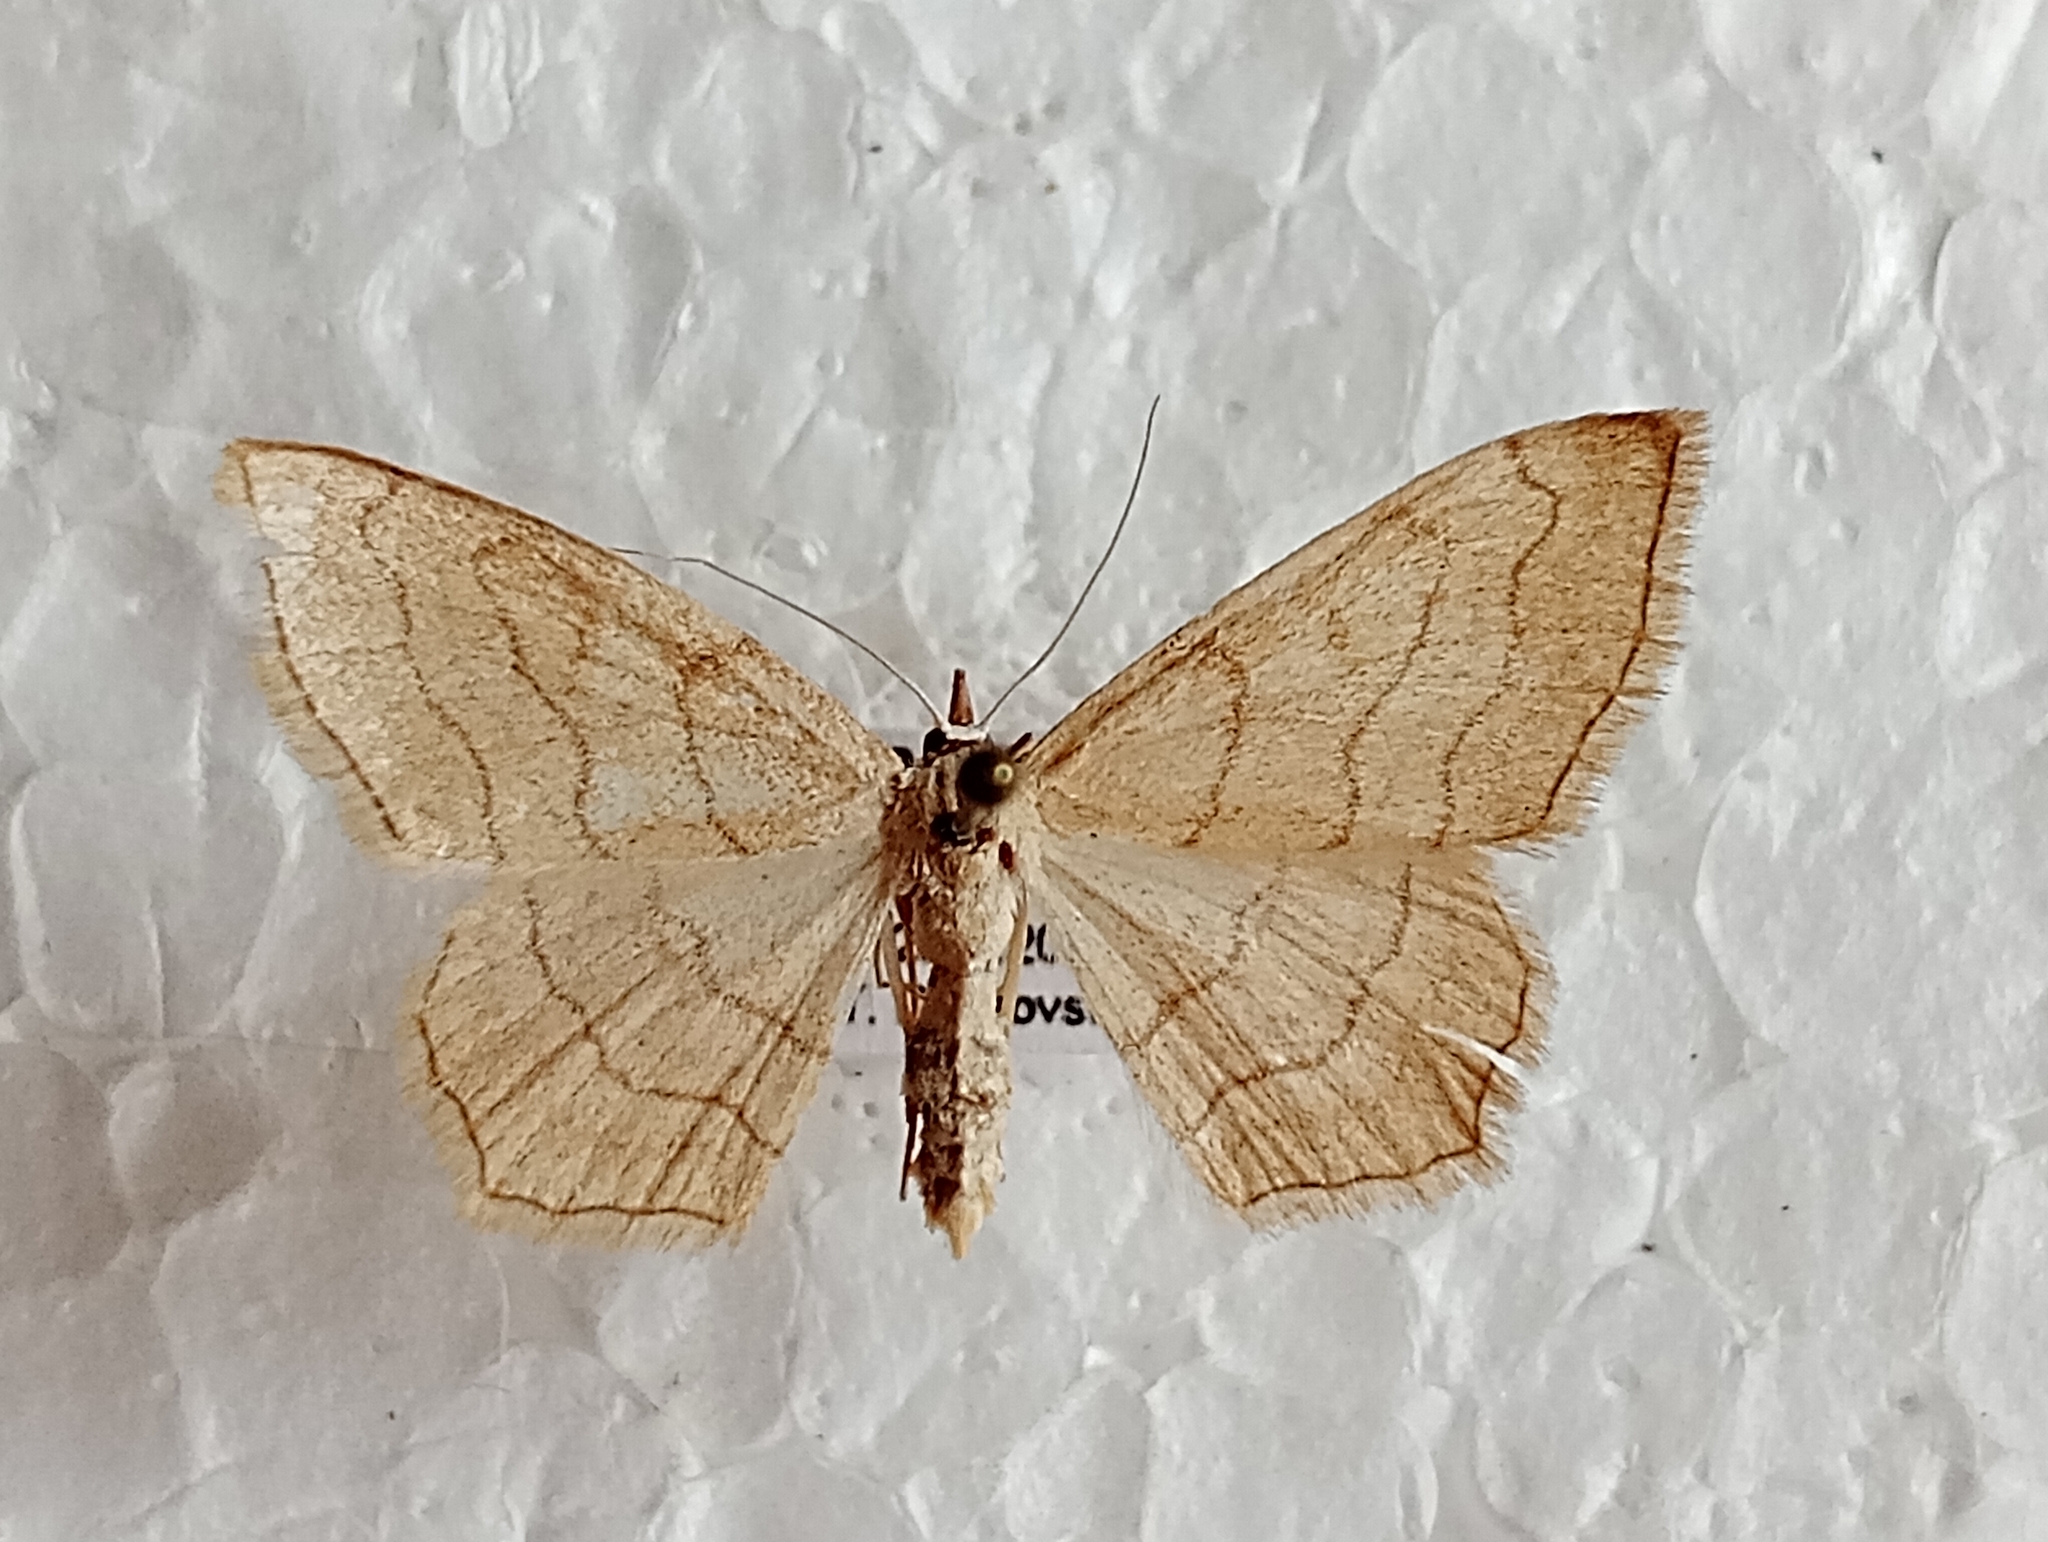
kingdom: Animalia
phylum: Arthropoda
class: Insecta
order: Lepidoptera
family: Geometridae
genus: Scopula
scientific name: Scopula ansulata
